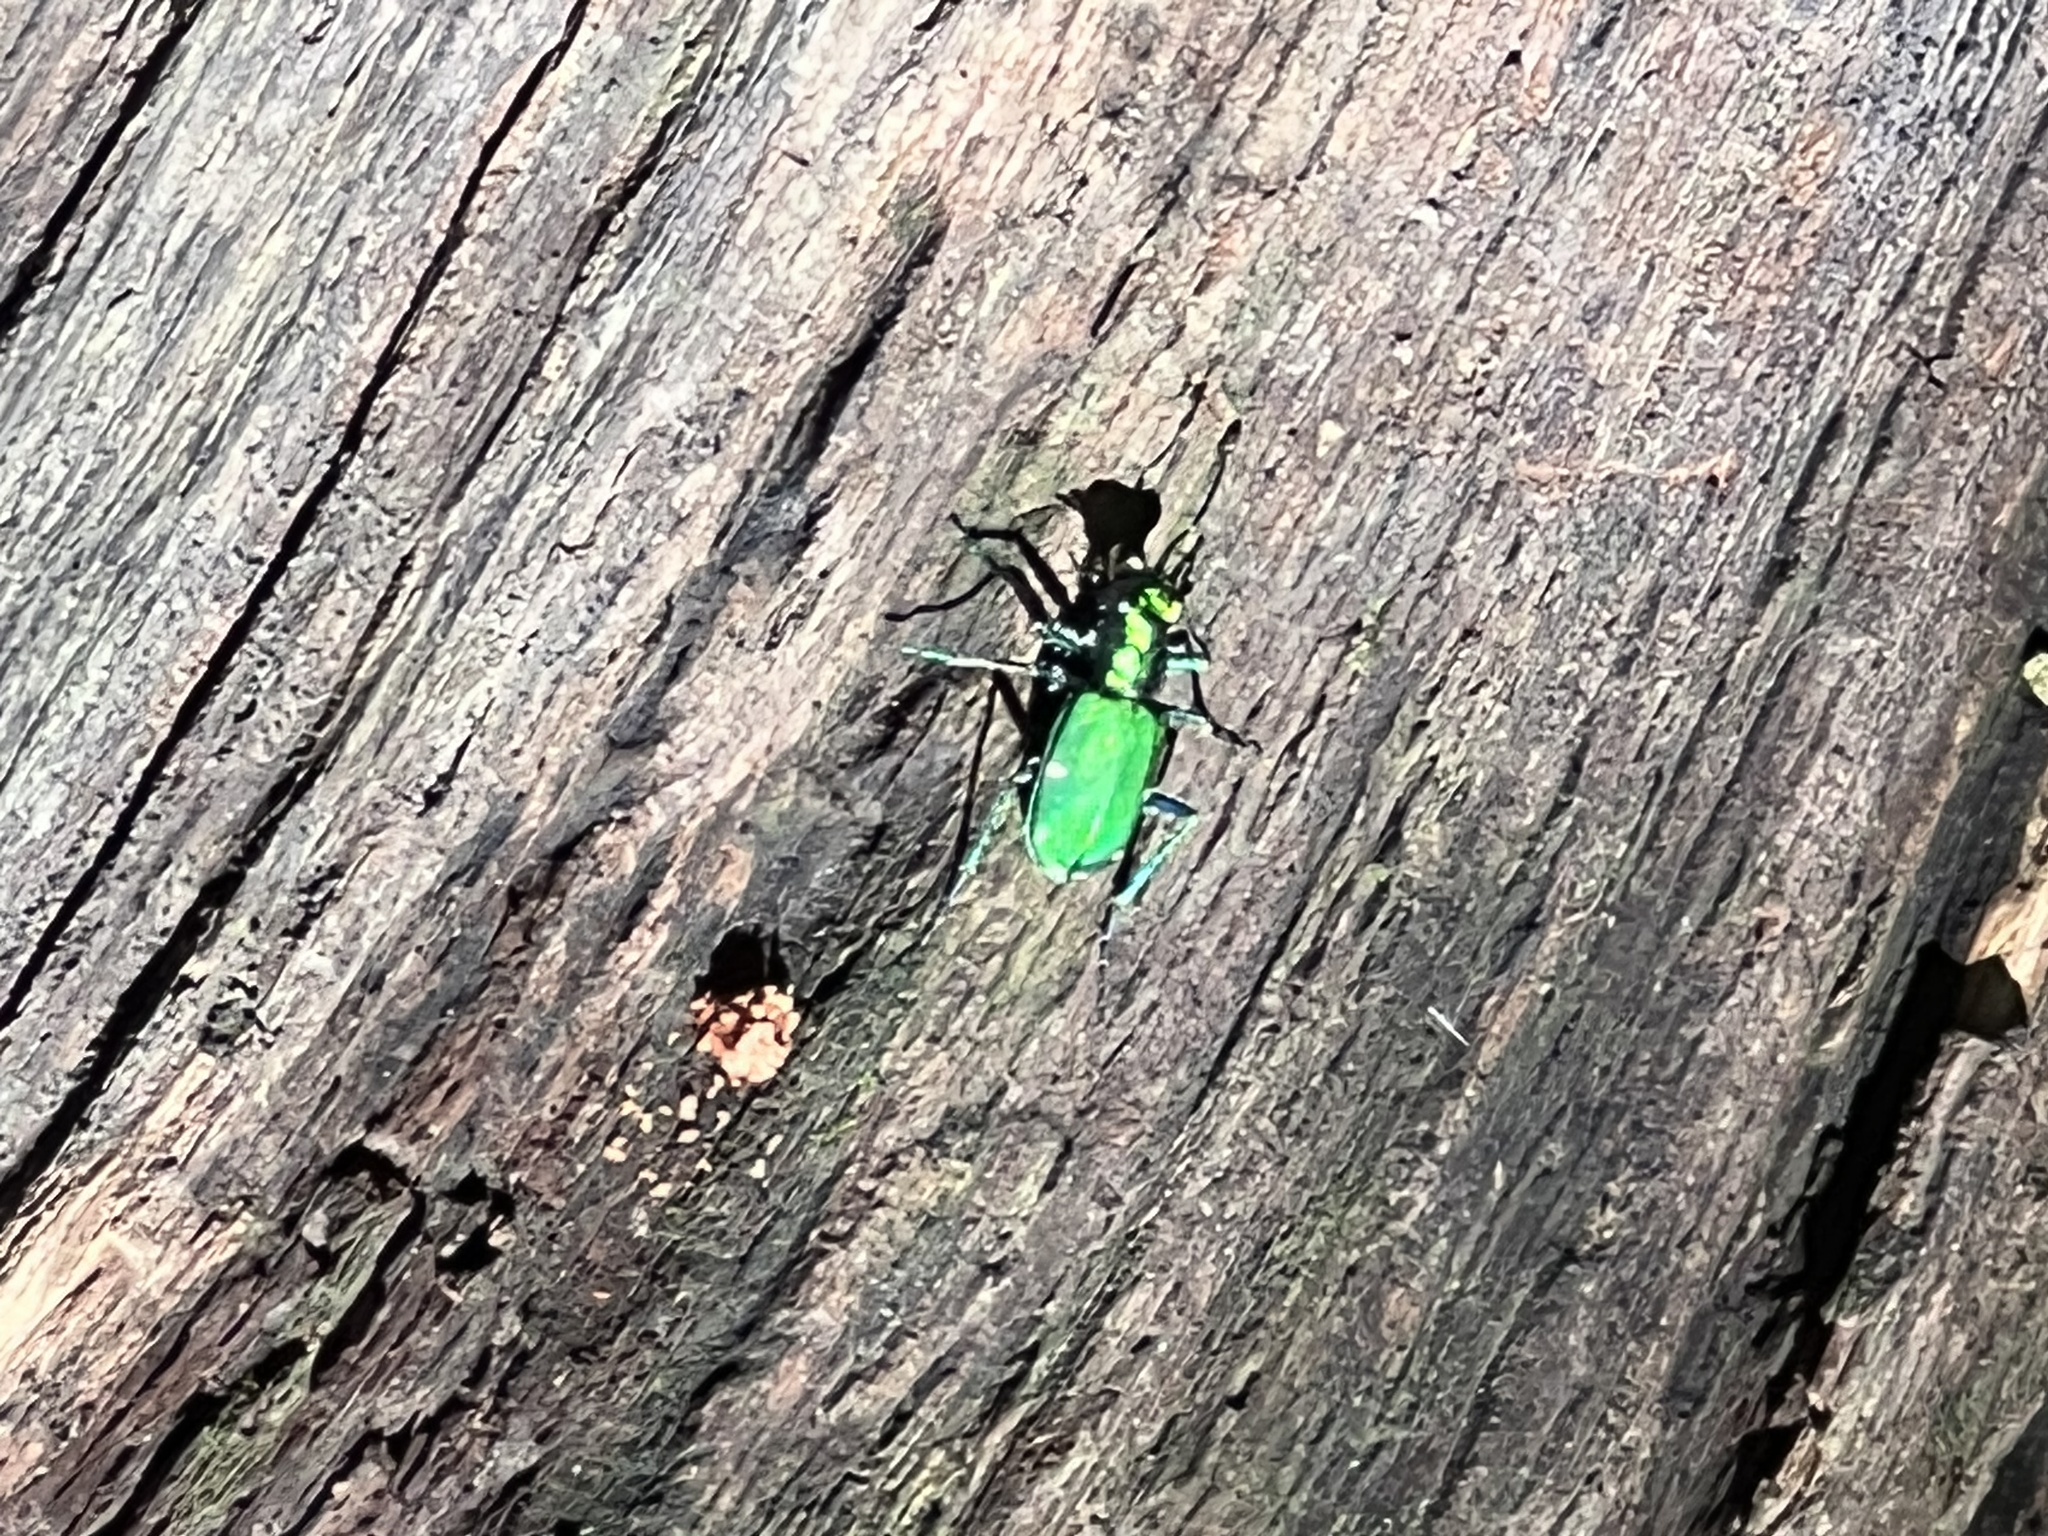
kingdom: Animalia
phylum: Arthropoda
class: Insecta
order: Coleoptera
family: Carabidae
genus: Cicindela
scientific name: Cicindela sexguttata
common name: Six-spotted tiger beetle
